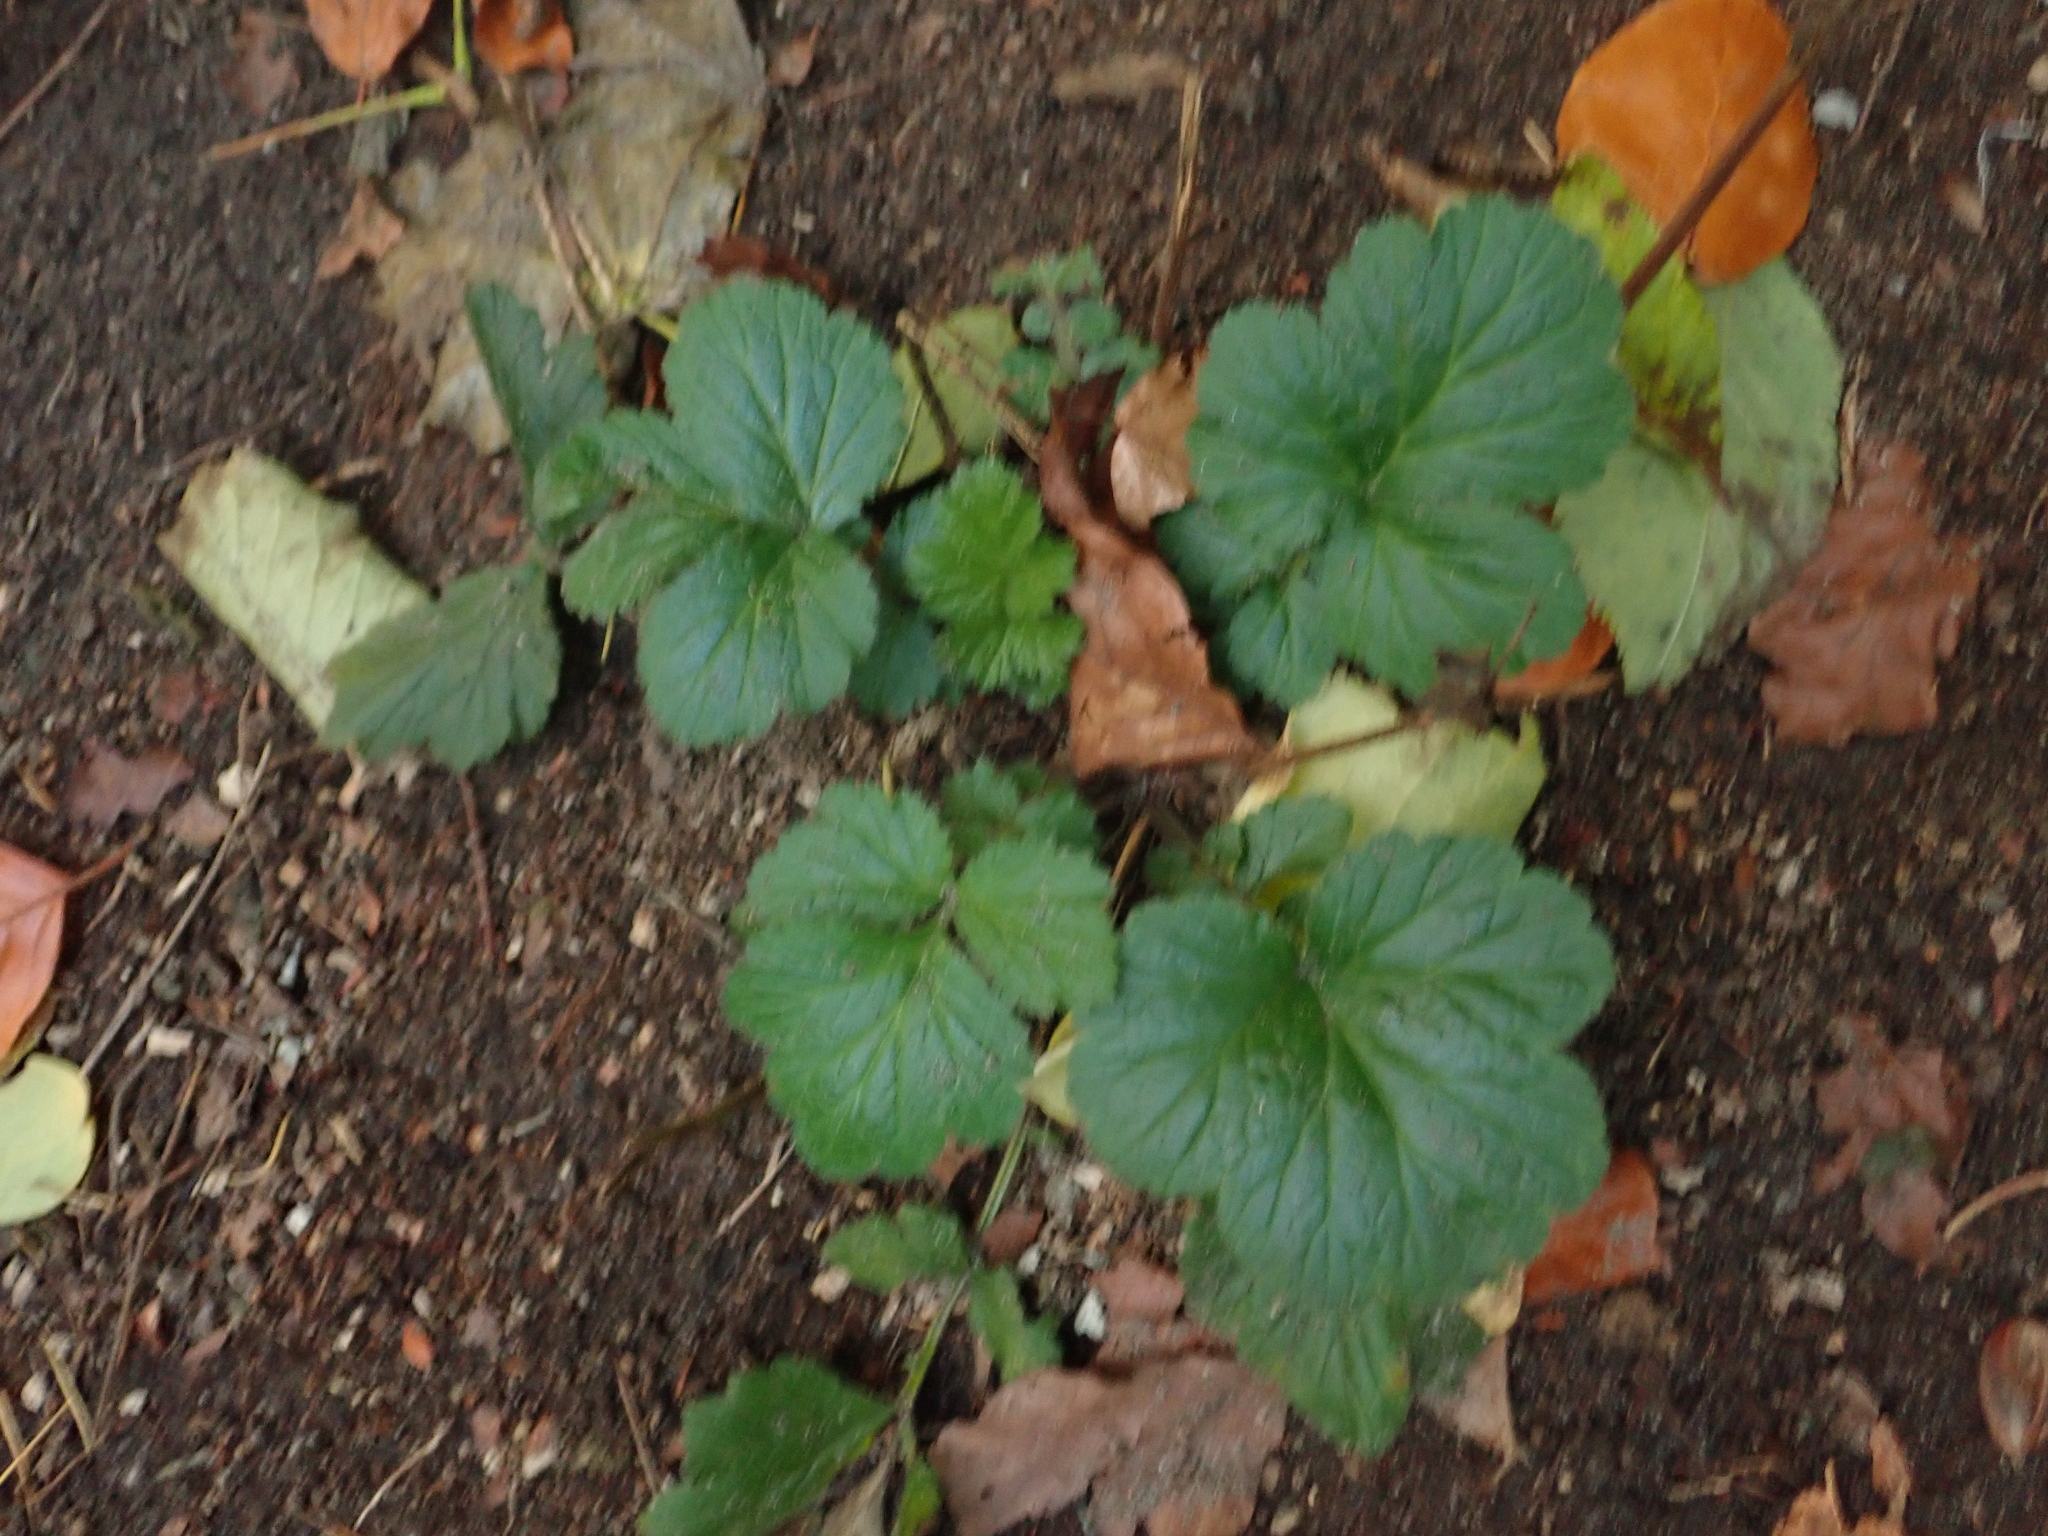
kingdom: Plantae
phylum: Tracheophyta
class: Magnoliopsida
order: Rosales
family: Rosaceae
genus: Geum
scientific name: Geum urbanum
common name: Wood avens
